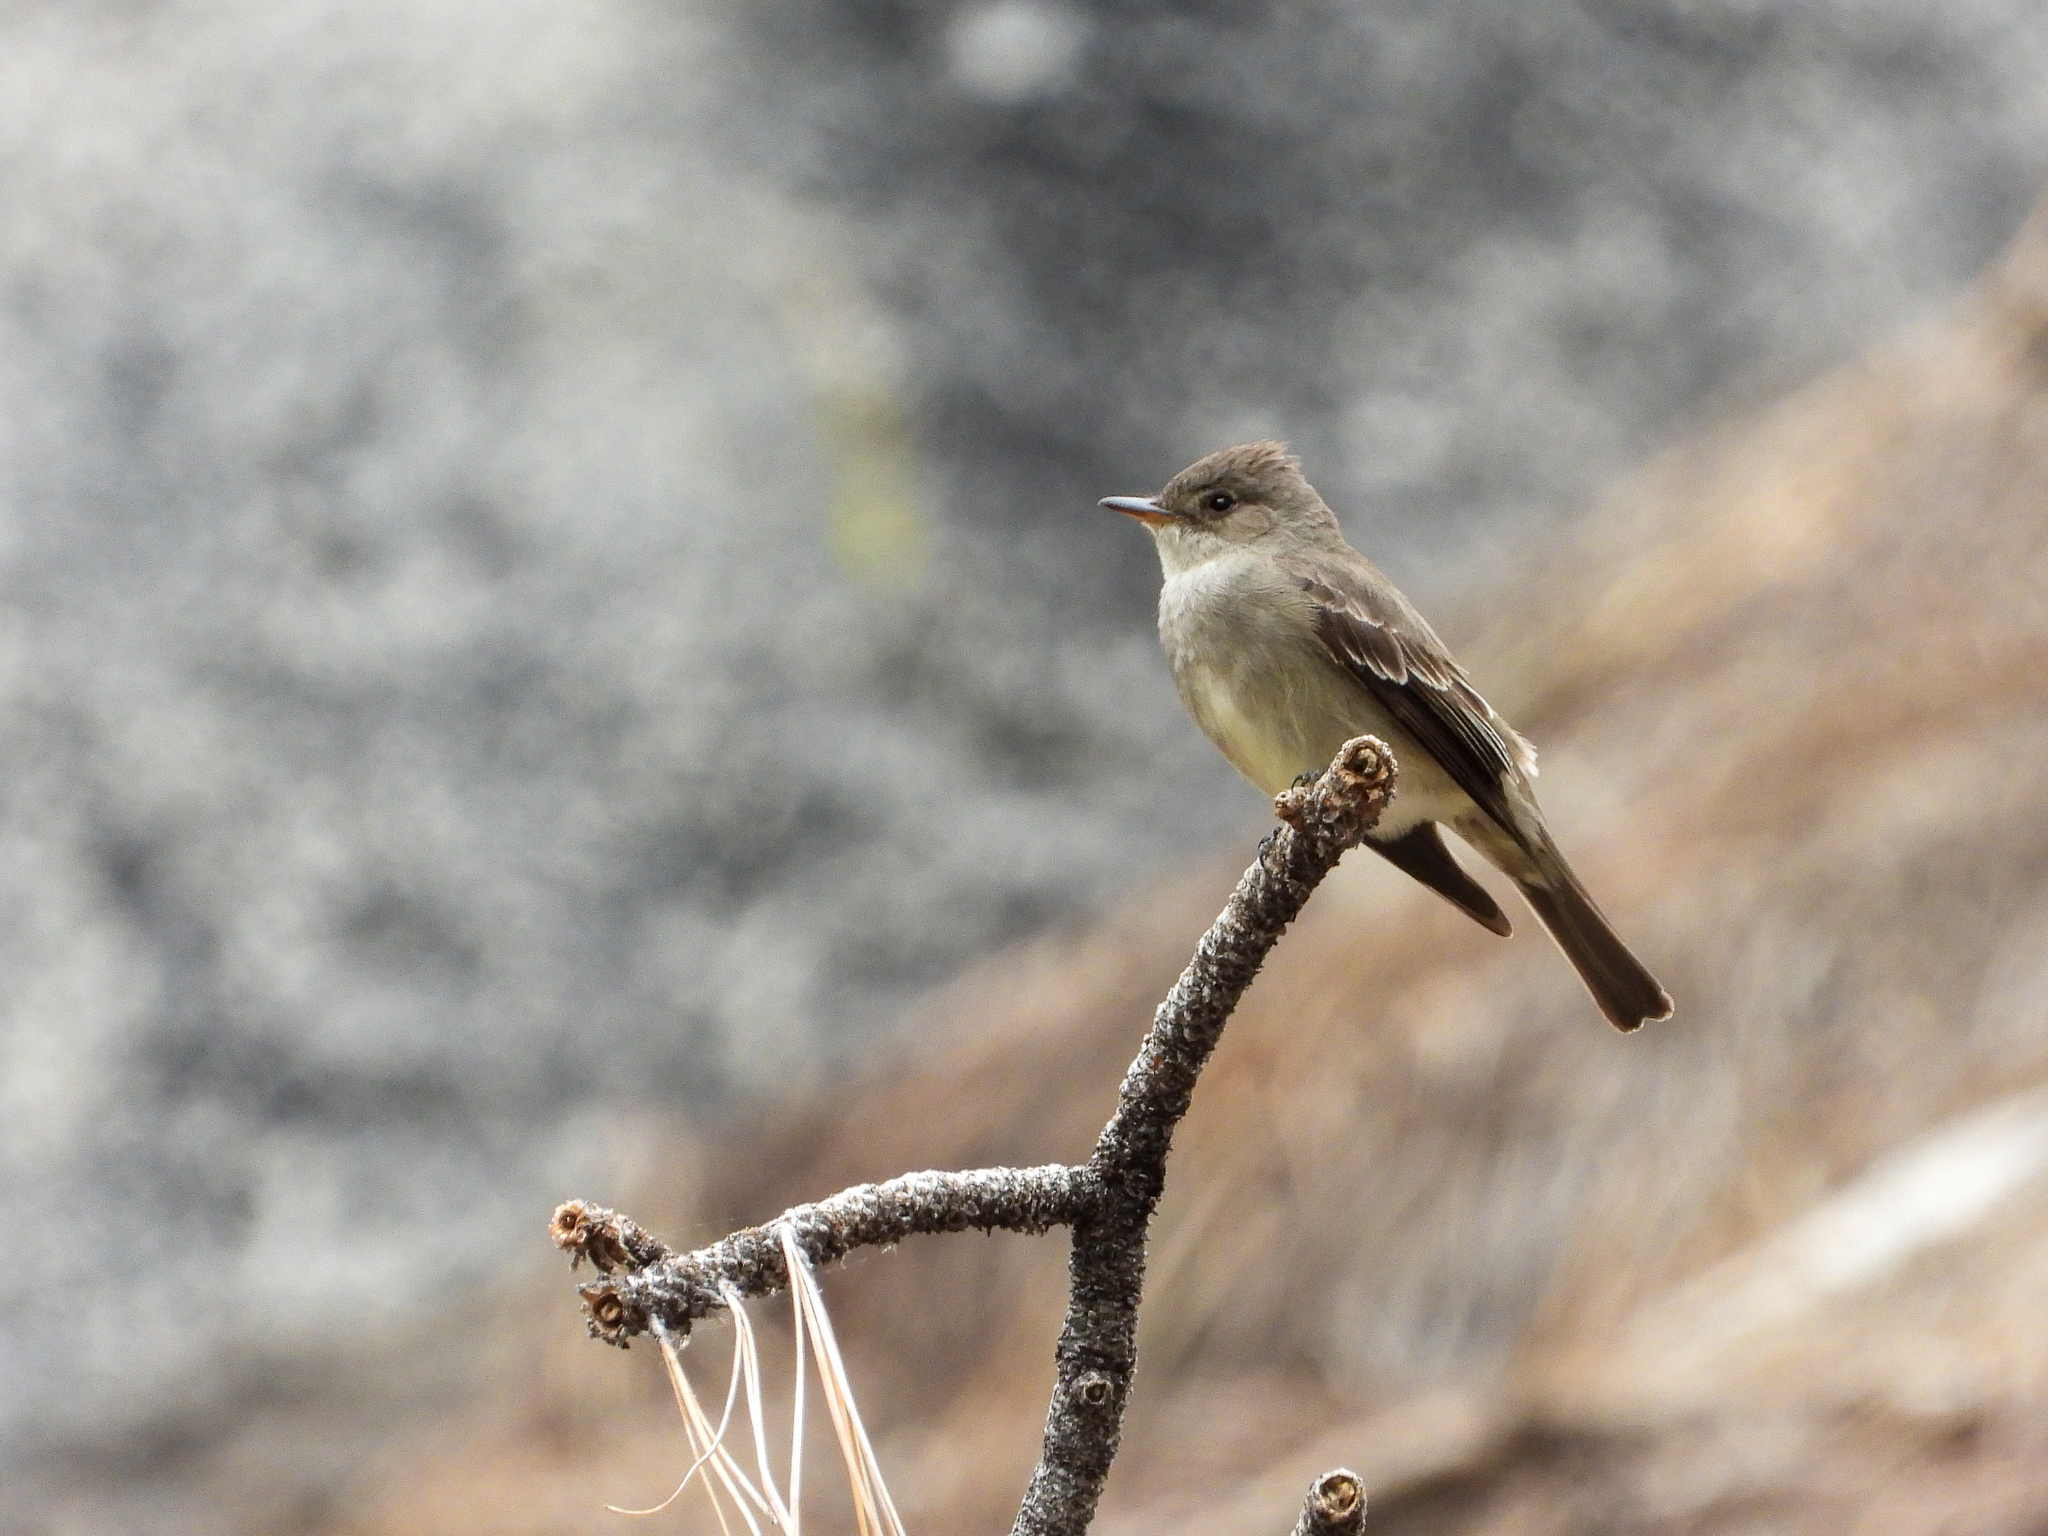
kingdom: Animalia
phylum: Chordata
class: Aves
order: Passeriformes
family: Tyrannidae
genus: Contopus
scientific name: Contopus sordidulus
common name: Western wood-pewee
